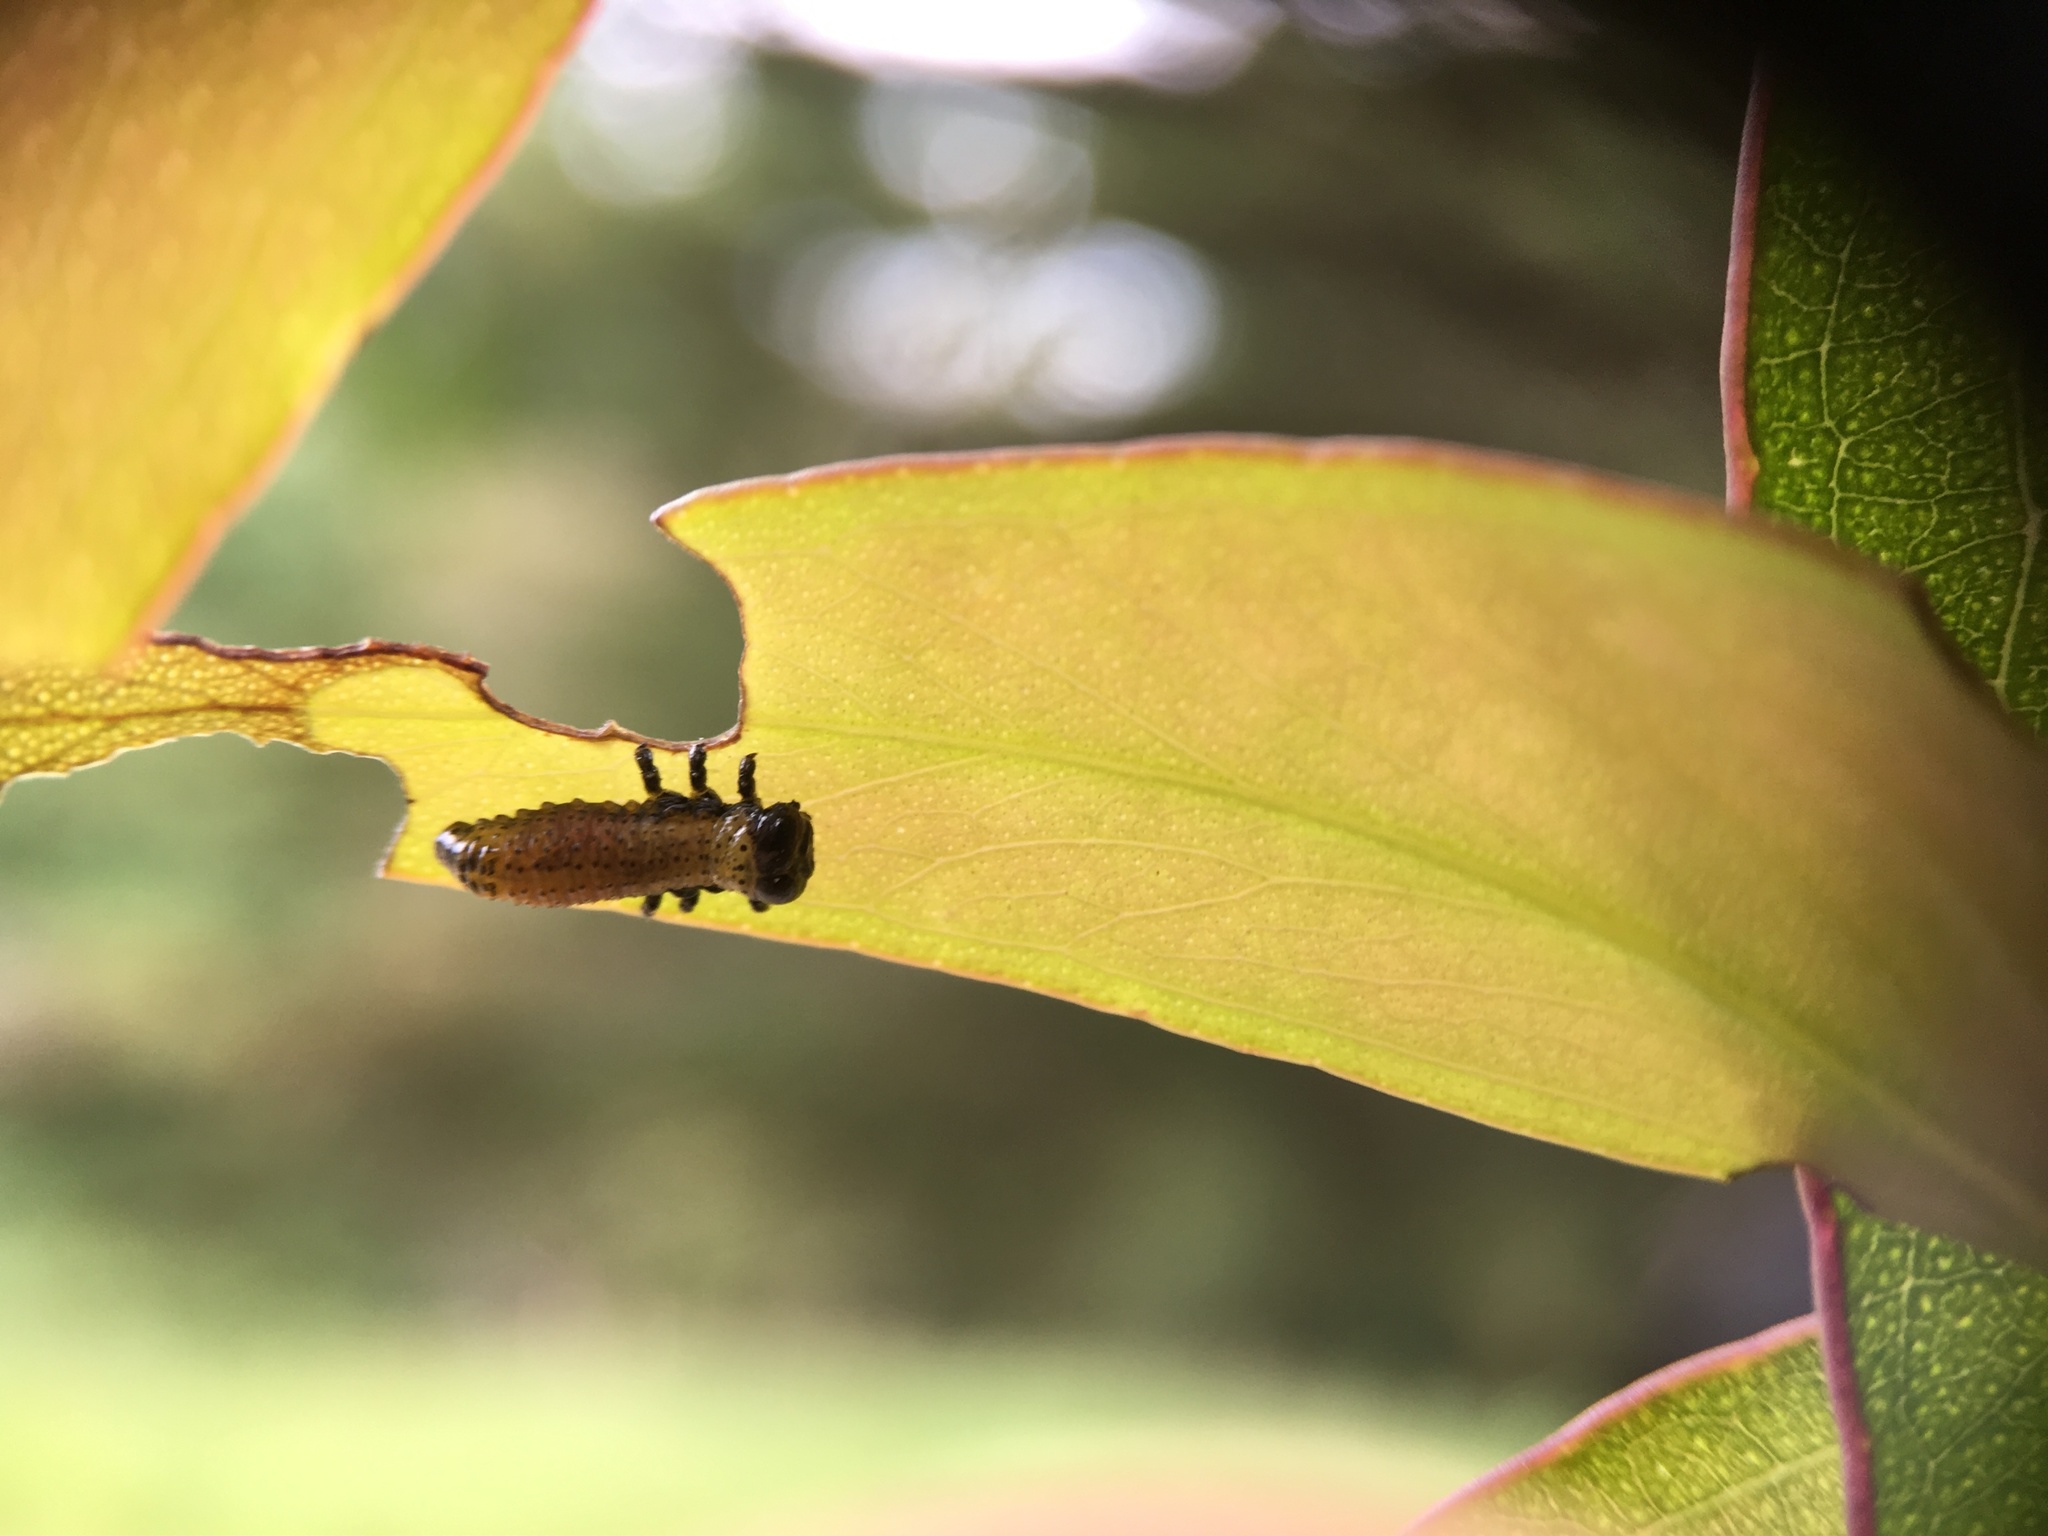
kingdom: Animalia
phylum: Arthropoda
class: Insecta
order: Coleoptera
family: Chrysomelidae
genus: Paropsis
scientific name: Paropsis charybdis
